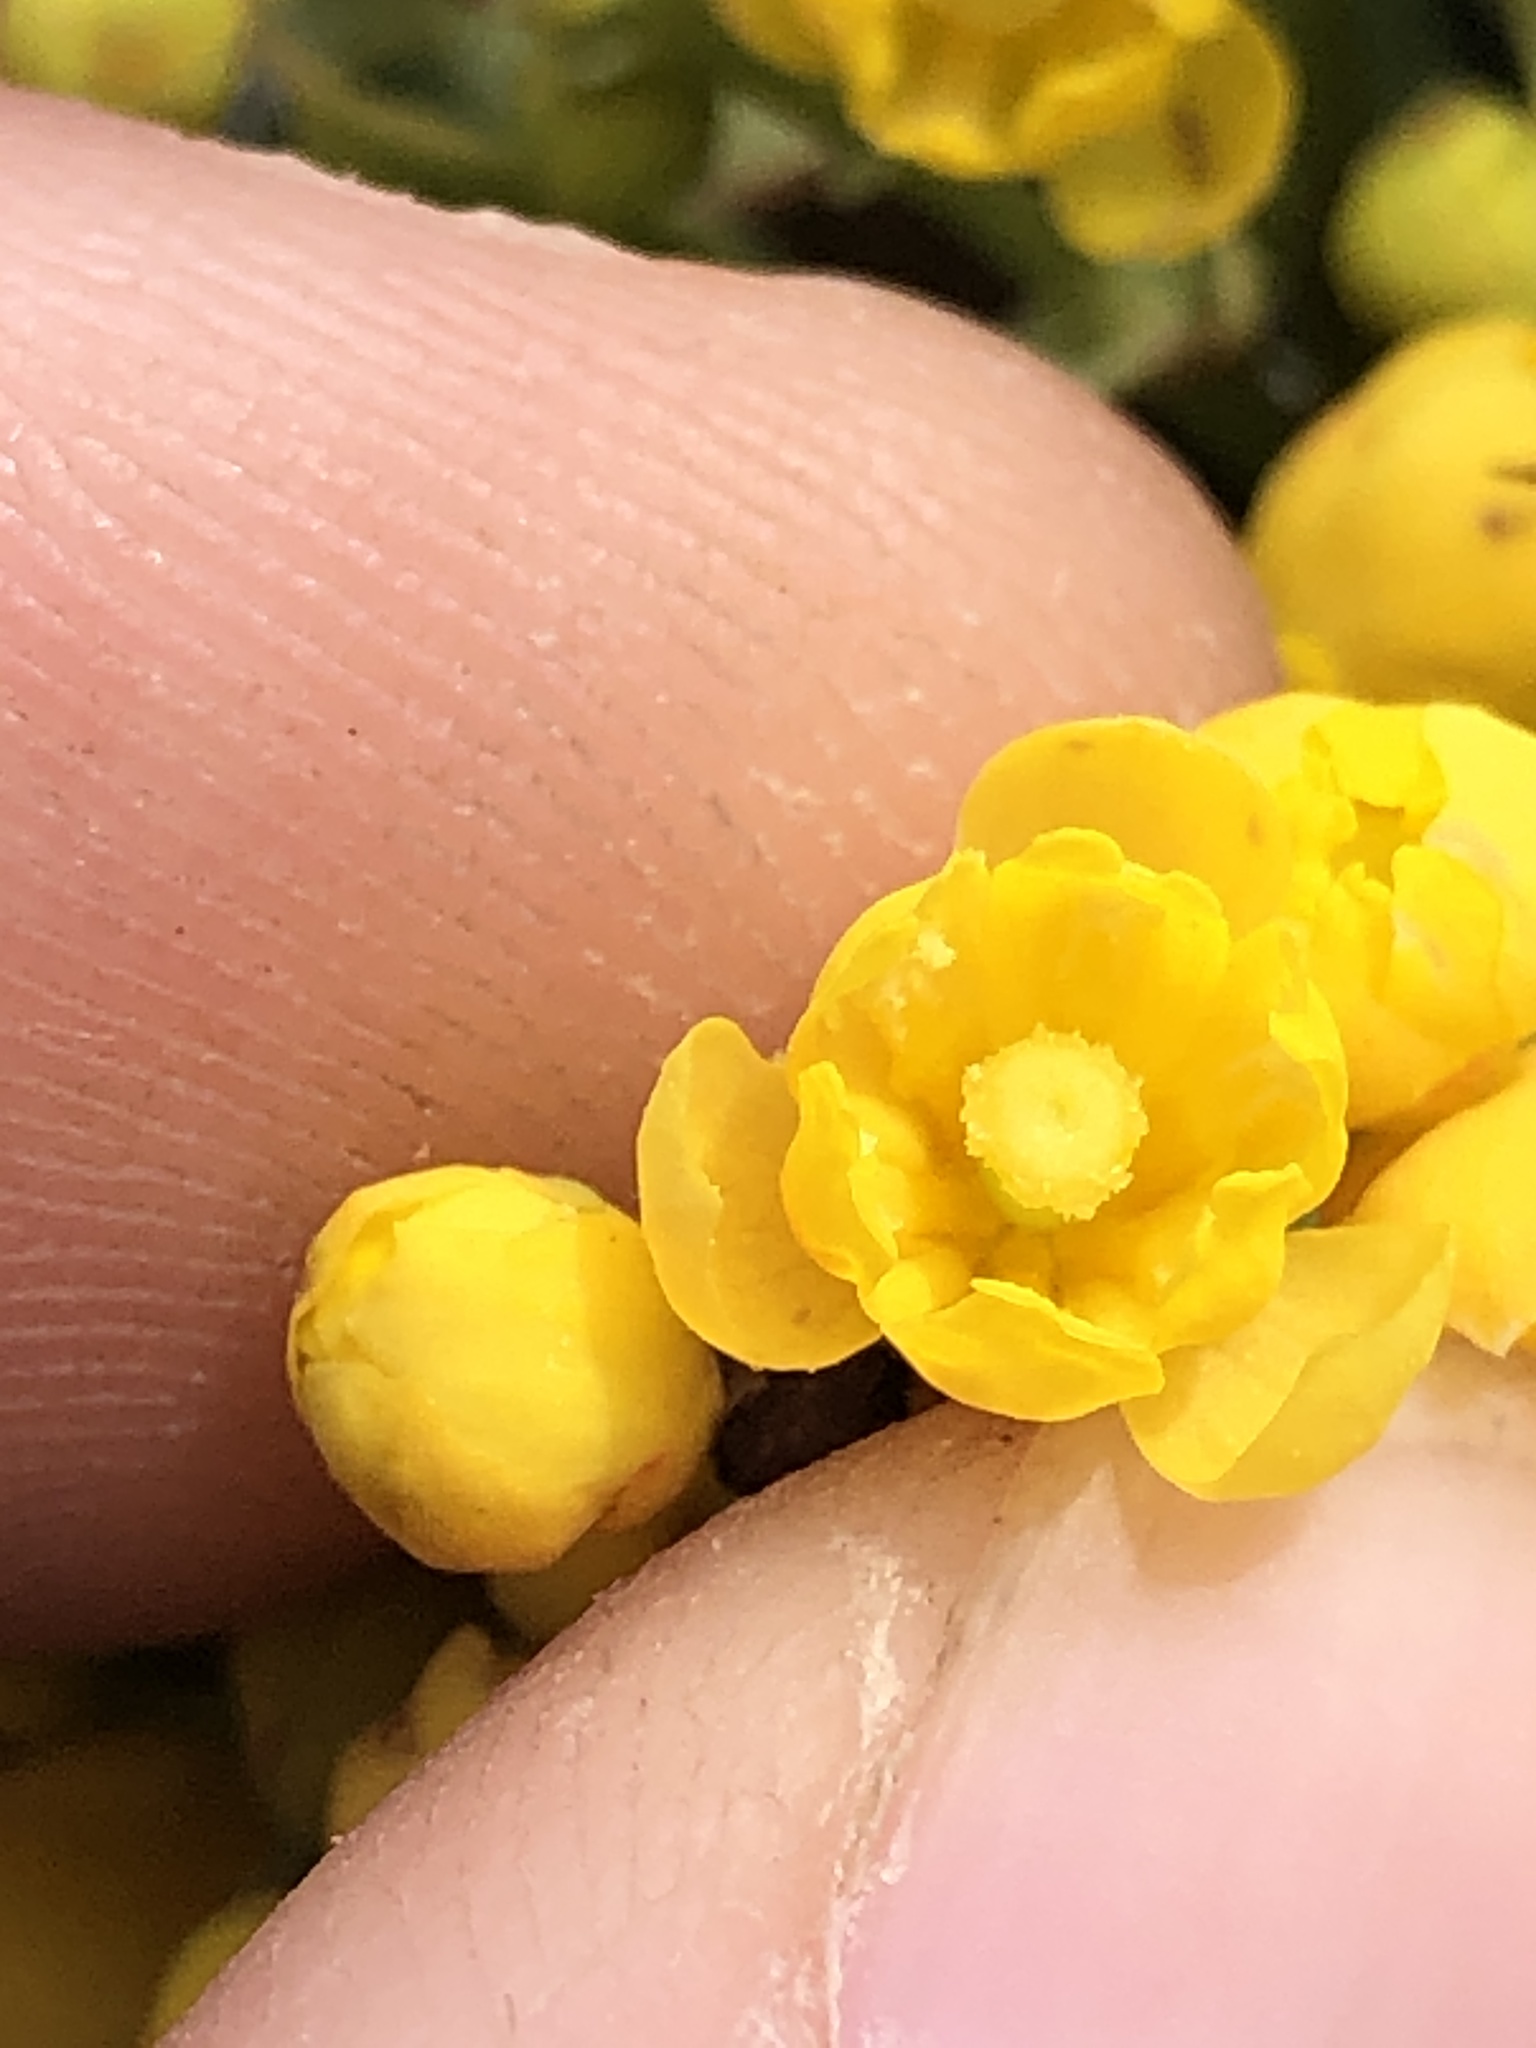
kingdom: Plantae
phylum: Tracheophyta
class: Magnoliopsida
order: Ranunculales
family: Berberidaceae
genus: Mahonia
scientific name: Mahonia dictyota
